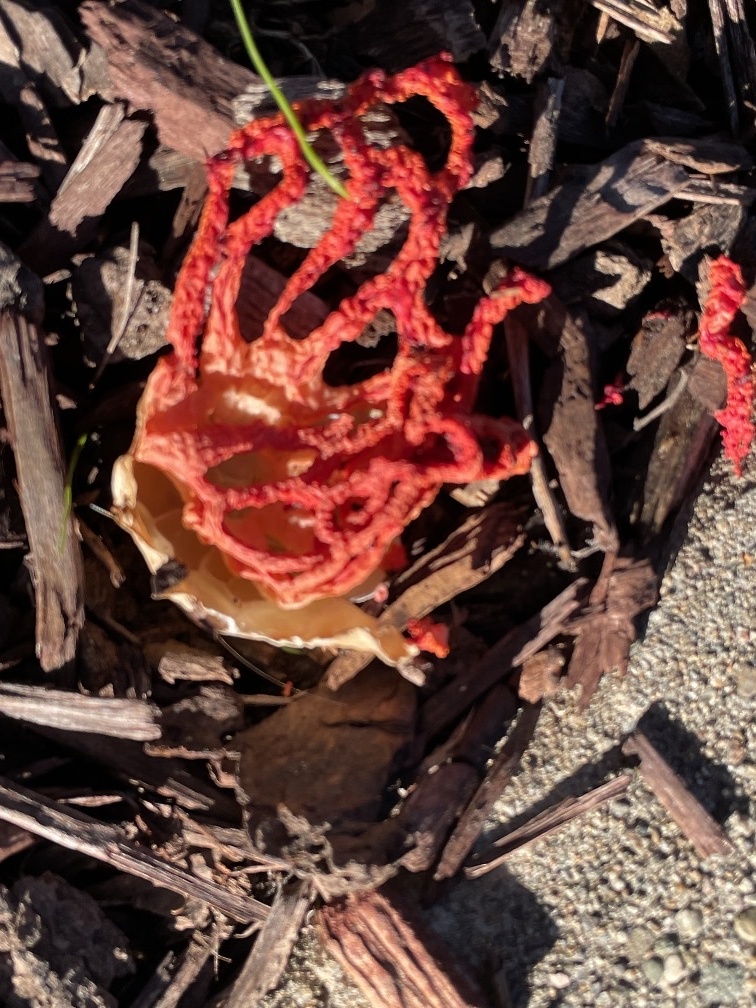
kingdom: Fungi
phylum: Basidiomycota
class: Agaricomycetes
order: Phallales
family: Phallaceae
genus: Clathrus
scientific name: Clathrus ruber
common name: Red cage
